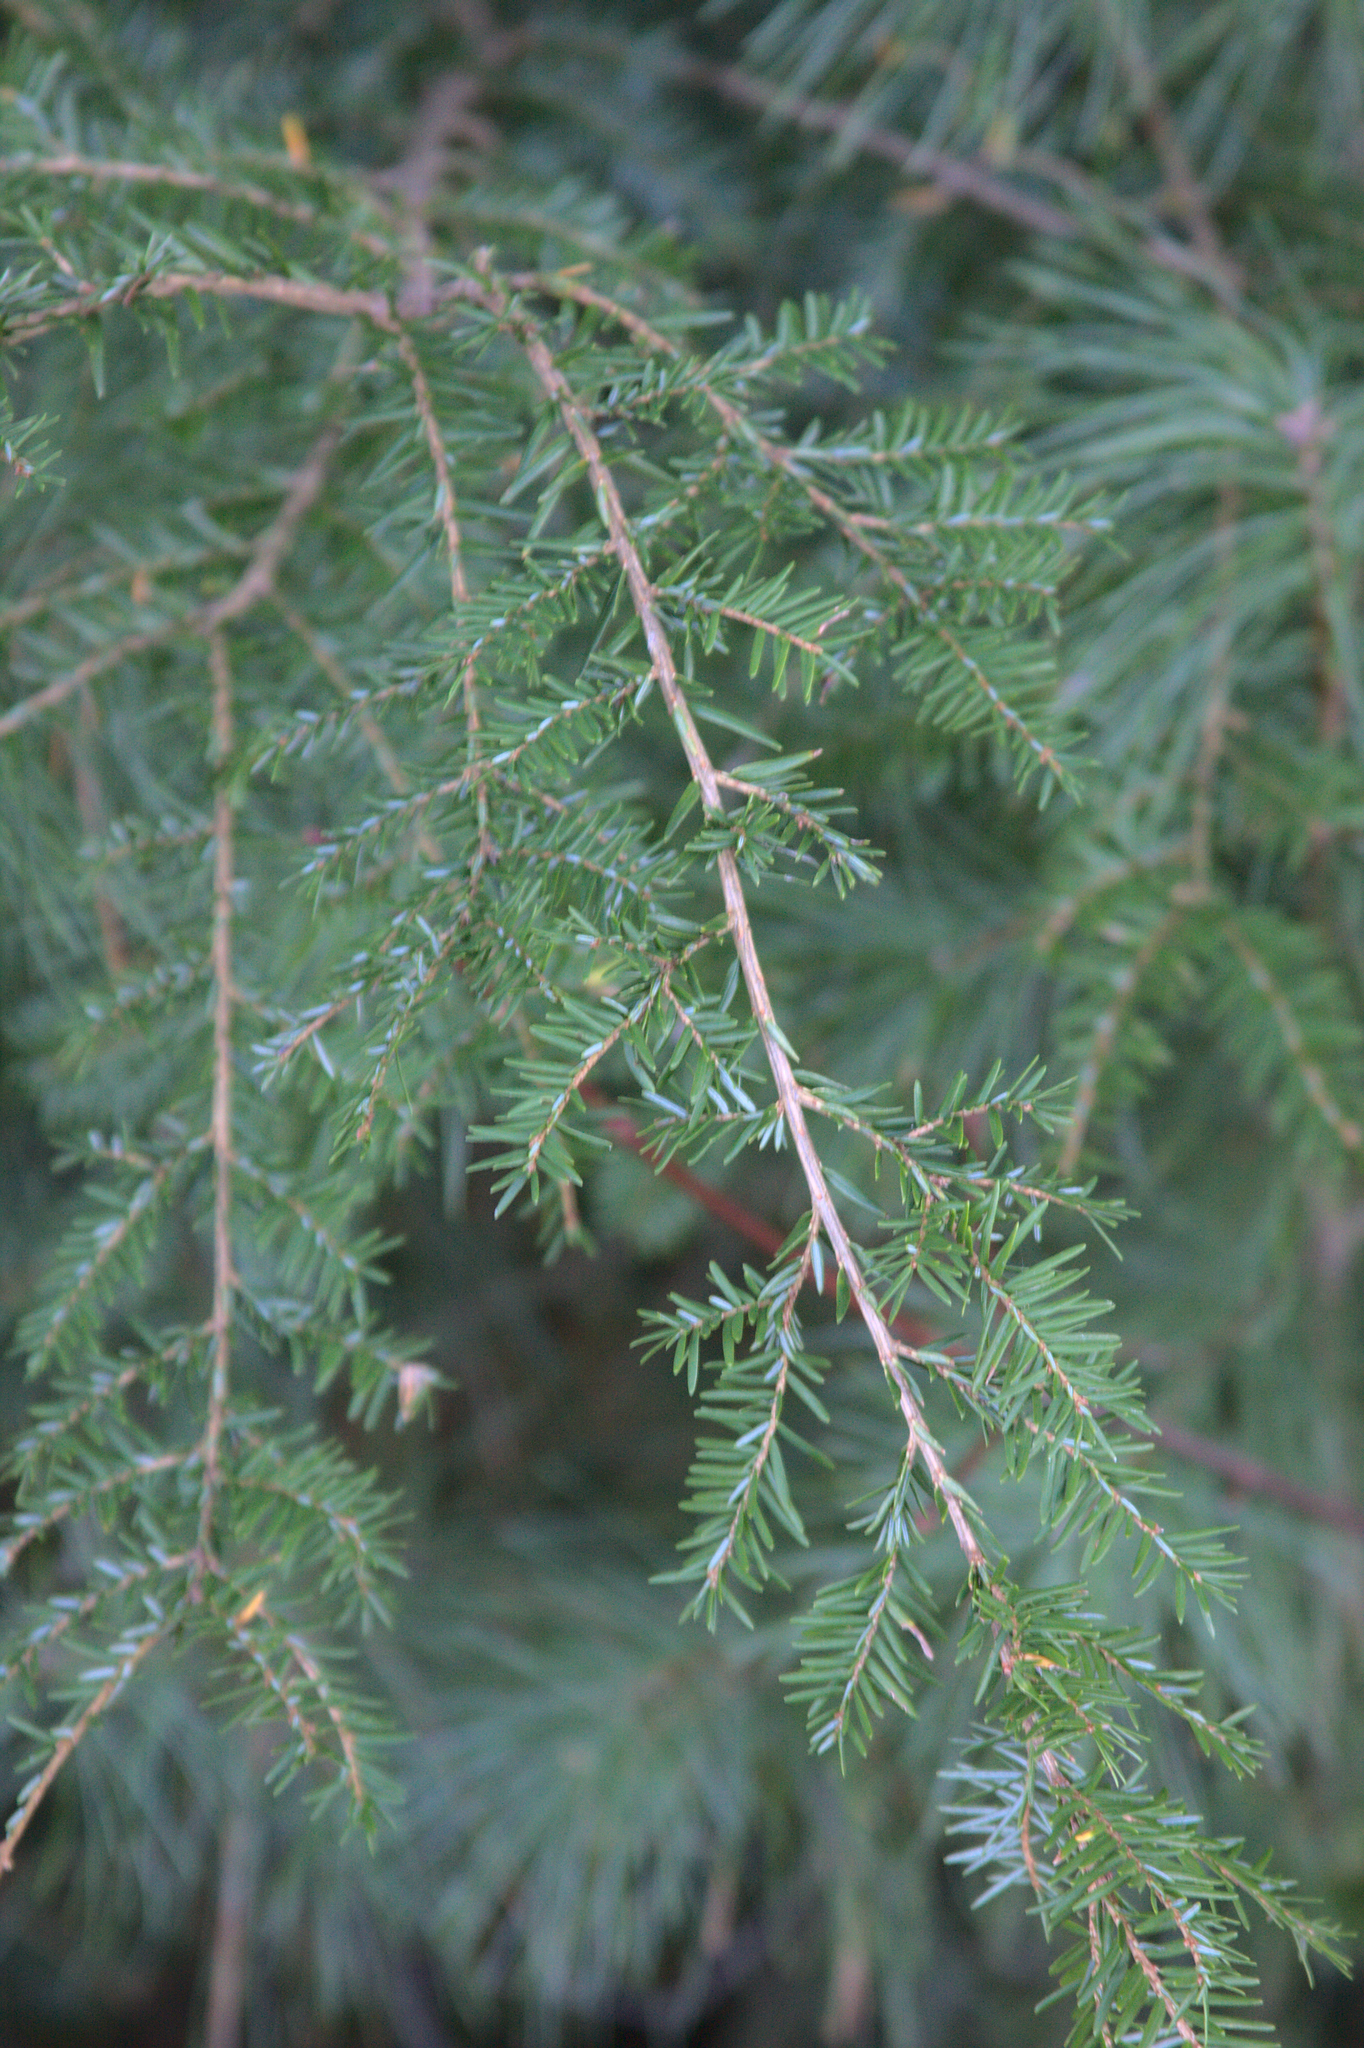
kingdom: Plantae
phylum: Tracheophyta
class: Pinopsida
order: Pinales
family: Pinaceae
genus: Tsuga
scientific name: Tsuga canadensis
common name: Eastern hemlock
